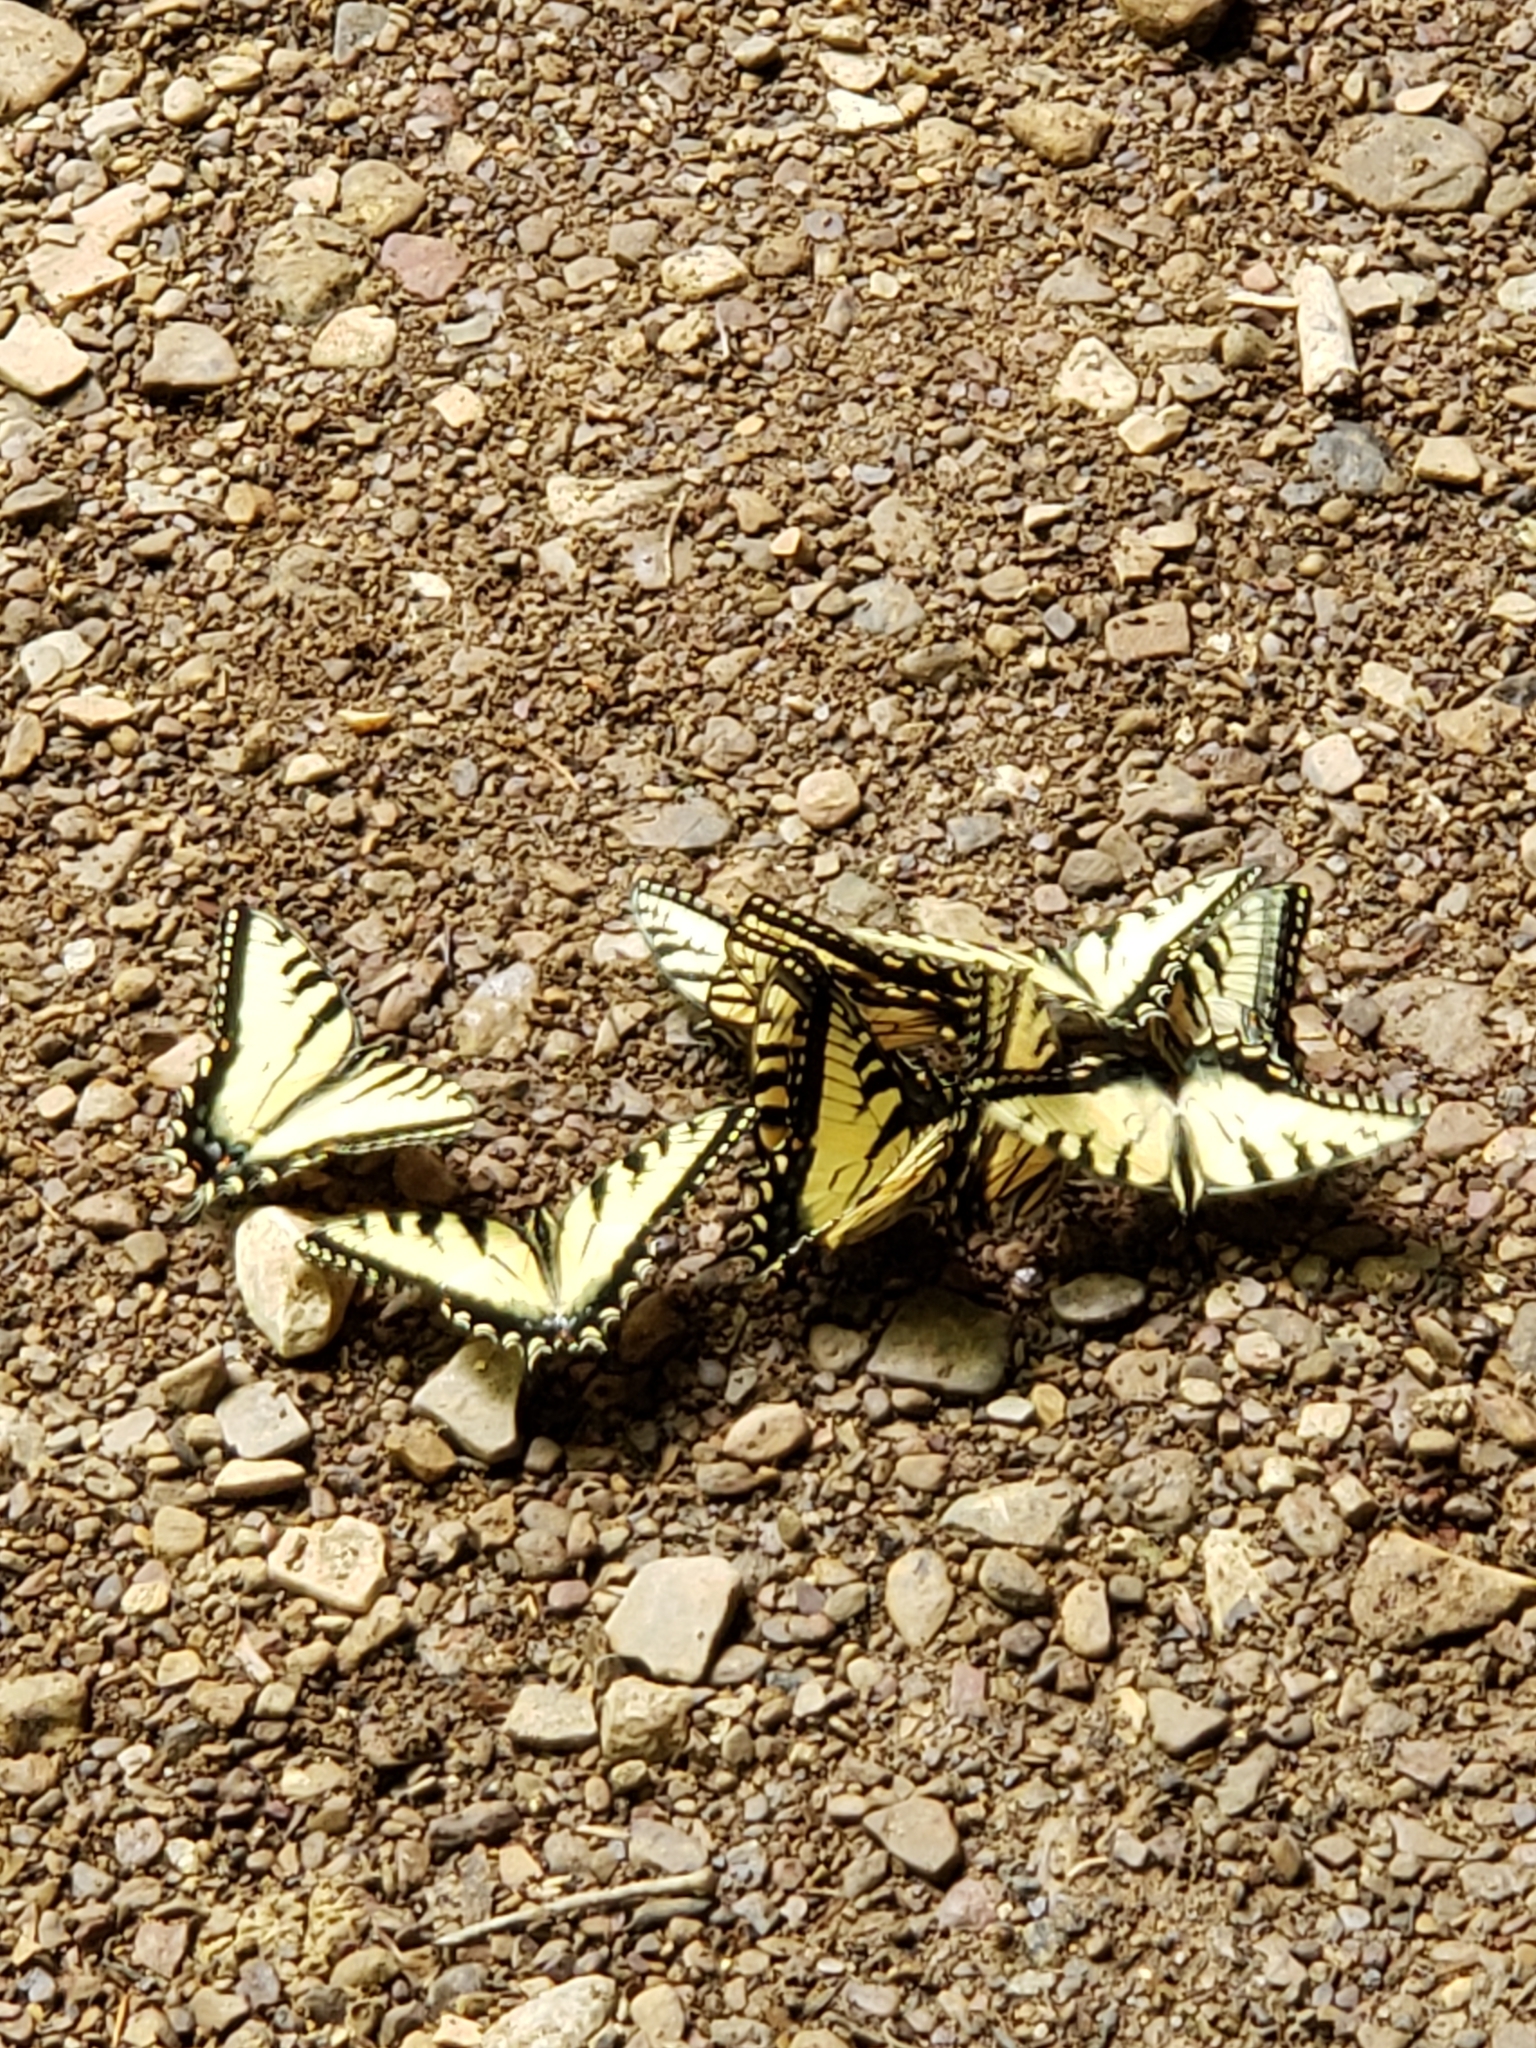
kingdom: Animalia
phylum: Arthropoda
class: Insecta
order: Lepidoptera
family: Papilionidae
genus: Papilio
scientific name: Papilio glaucus
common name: Tiger swallowtail
